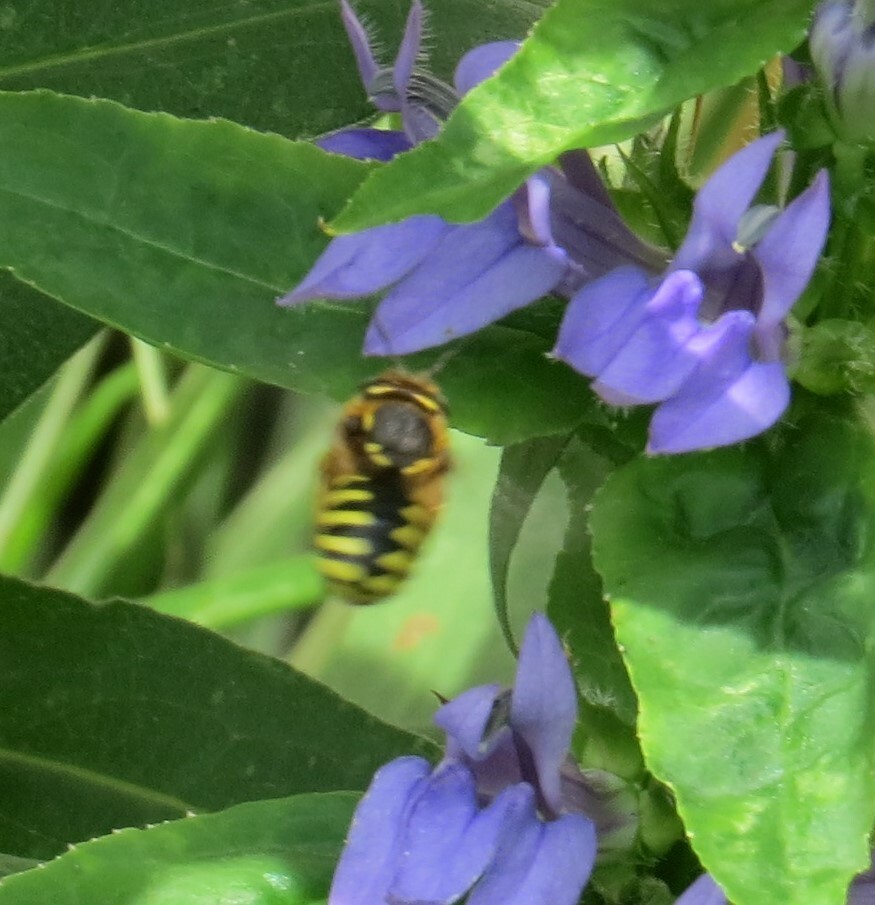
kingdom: Animalia
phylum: Arthropoda
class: Insecta
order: Hymenoptera
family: Megachilidae
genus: Anthidium
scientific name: Anthidium manicatum
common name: Wool carder bee
